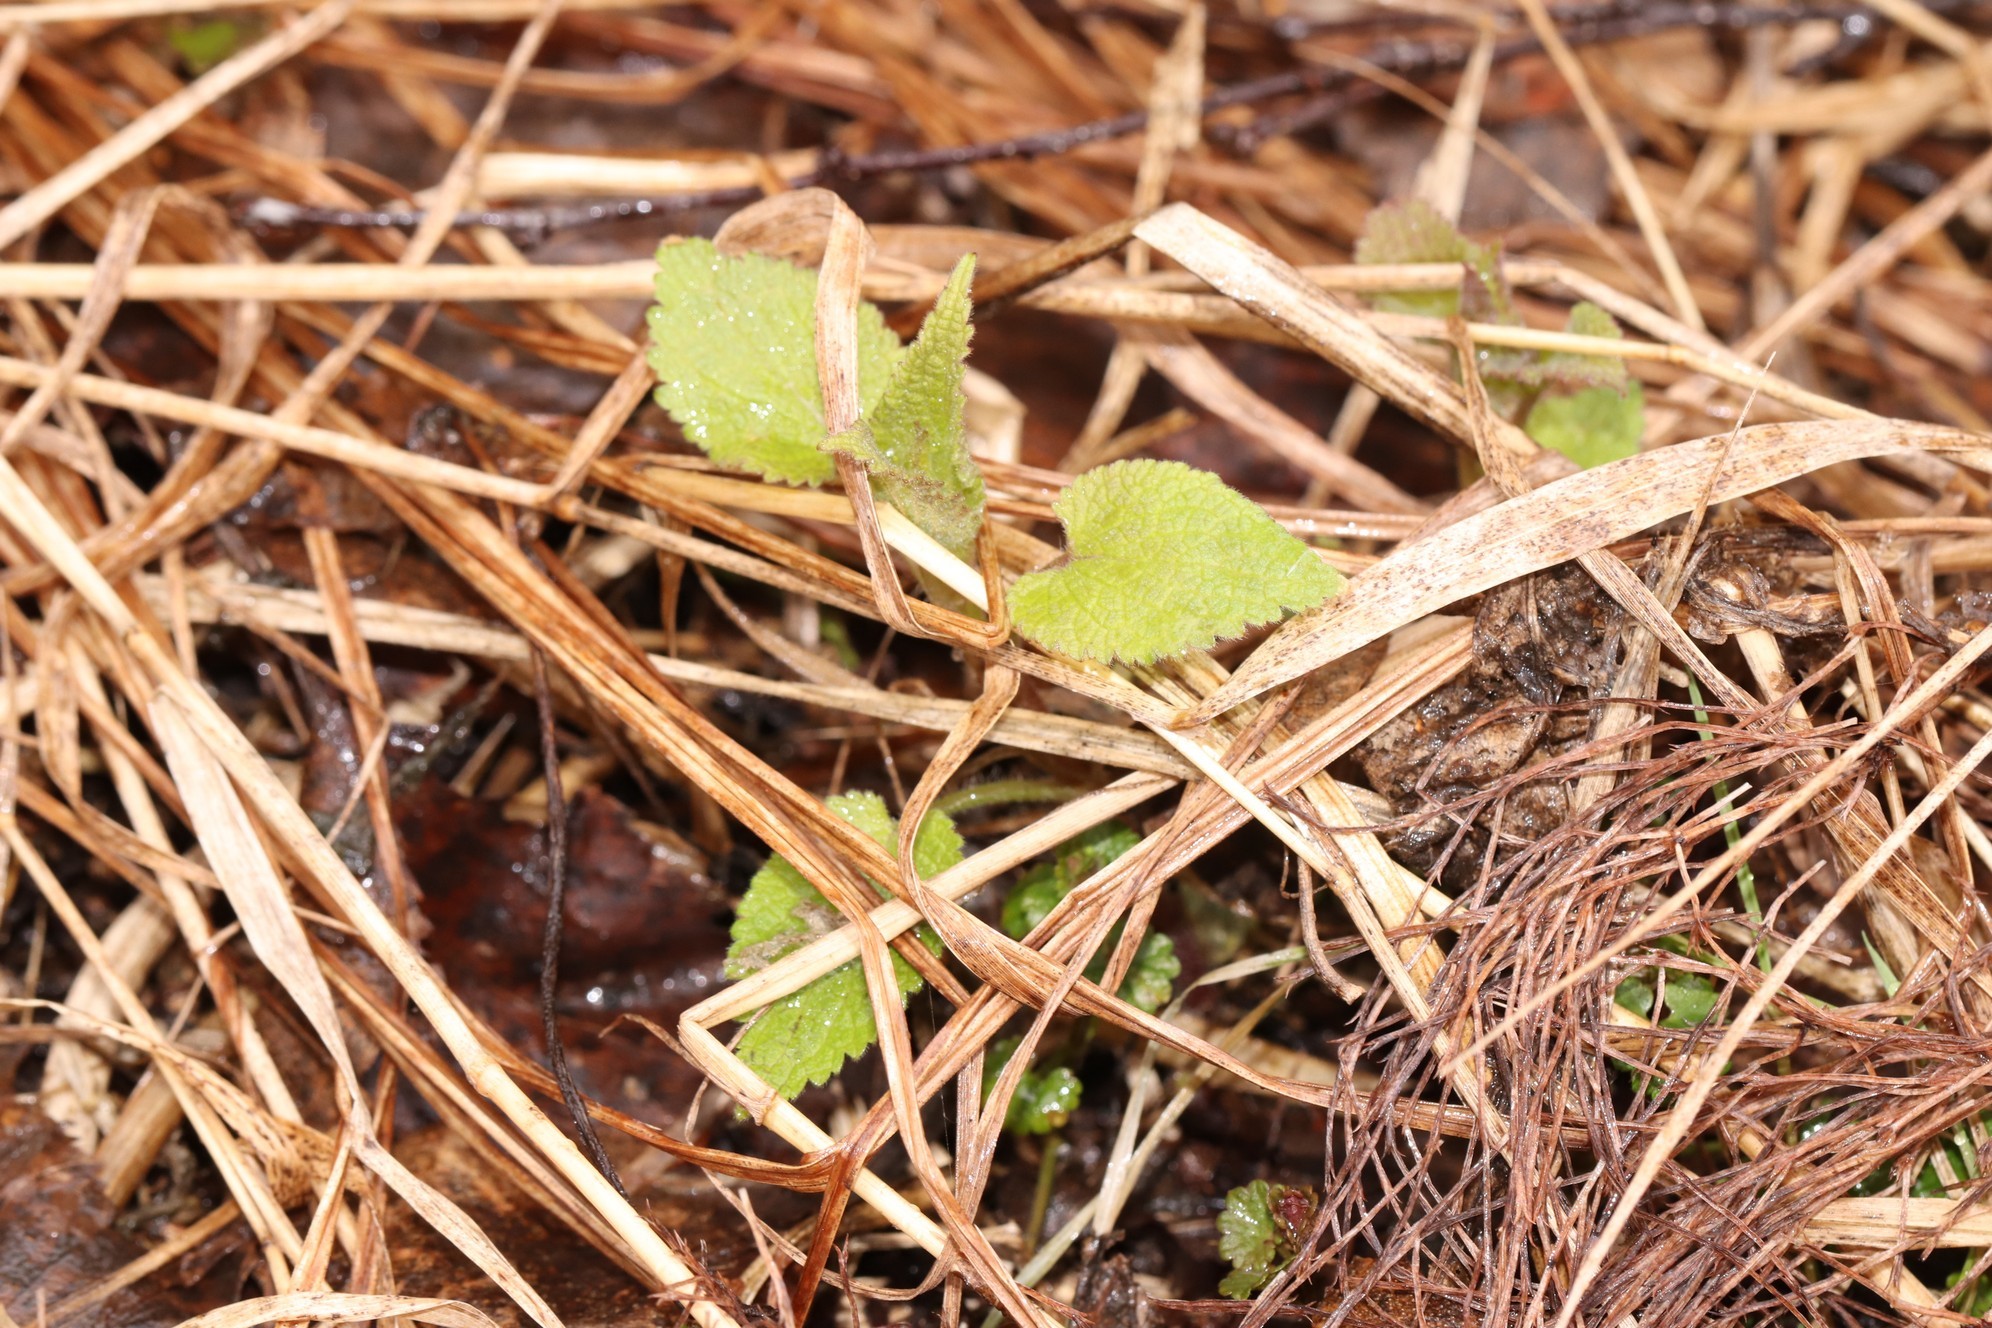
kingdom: Plantae
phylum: Tracheophyta
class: Magnoliopsida
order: Lamiales
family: Lamiaceae
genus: Lamium
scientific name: Lamium album
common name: White dead-nettle
